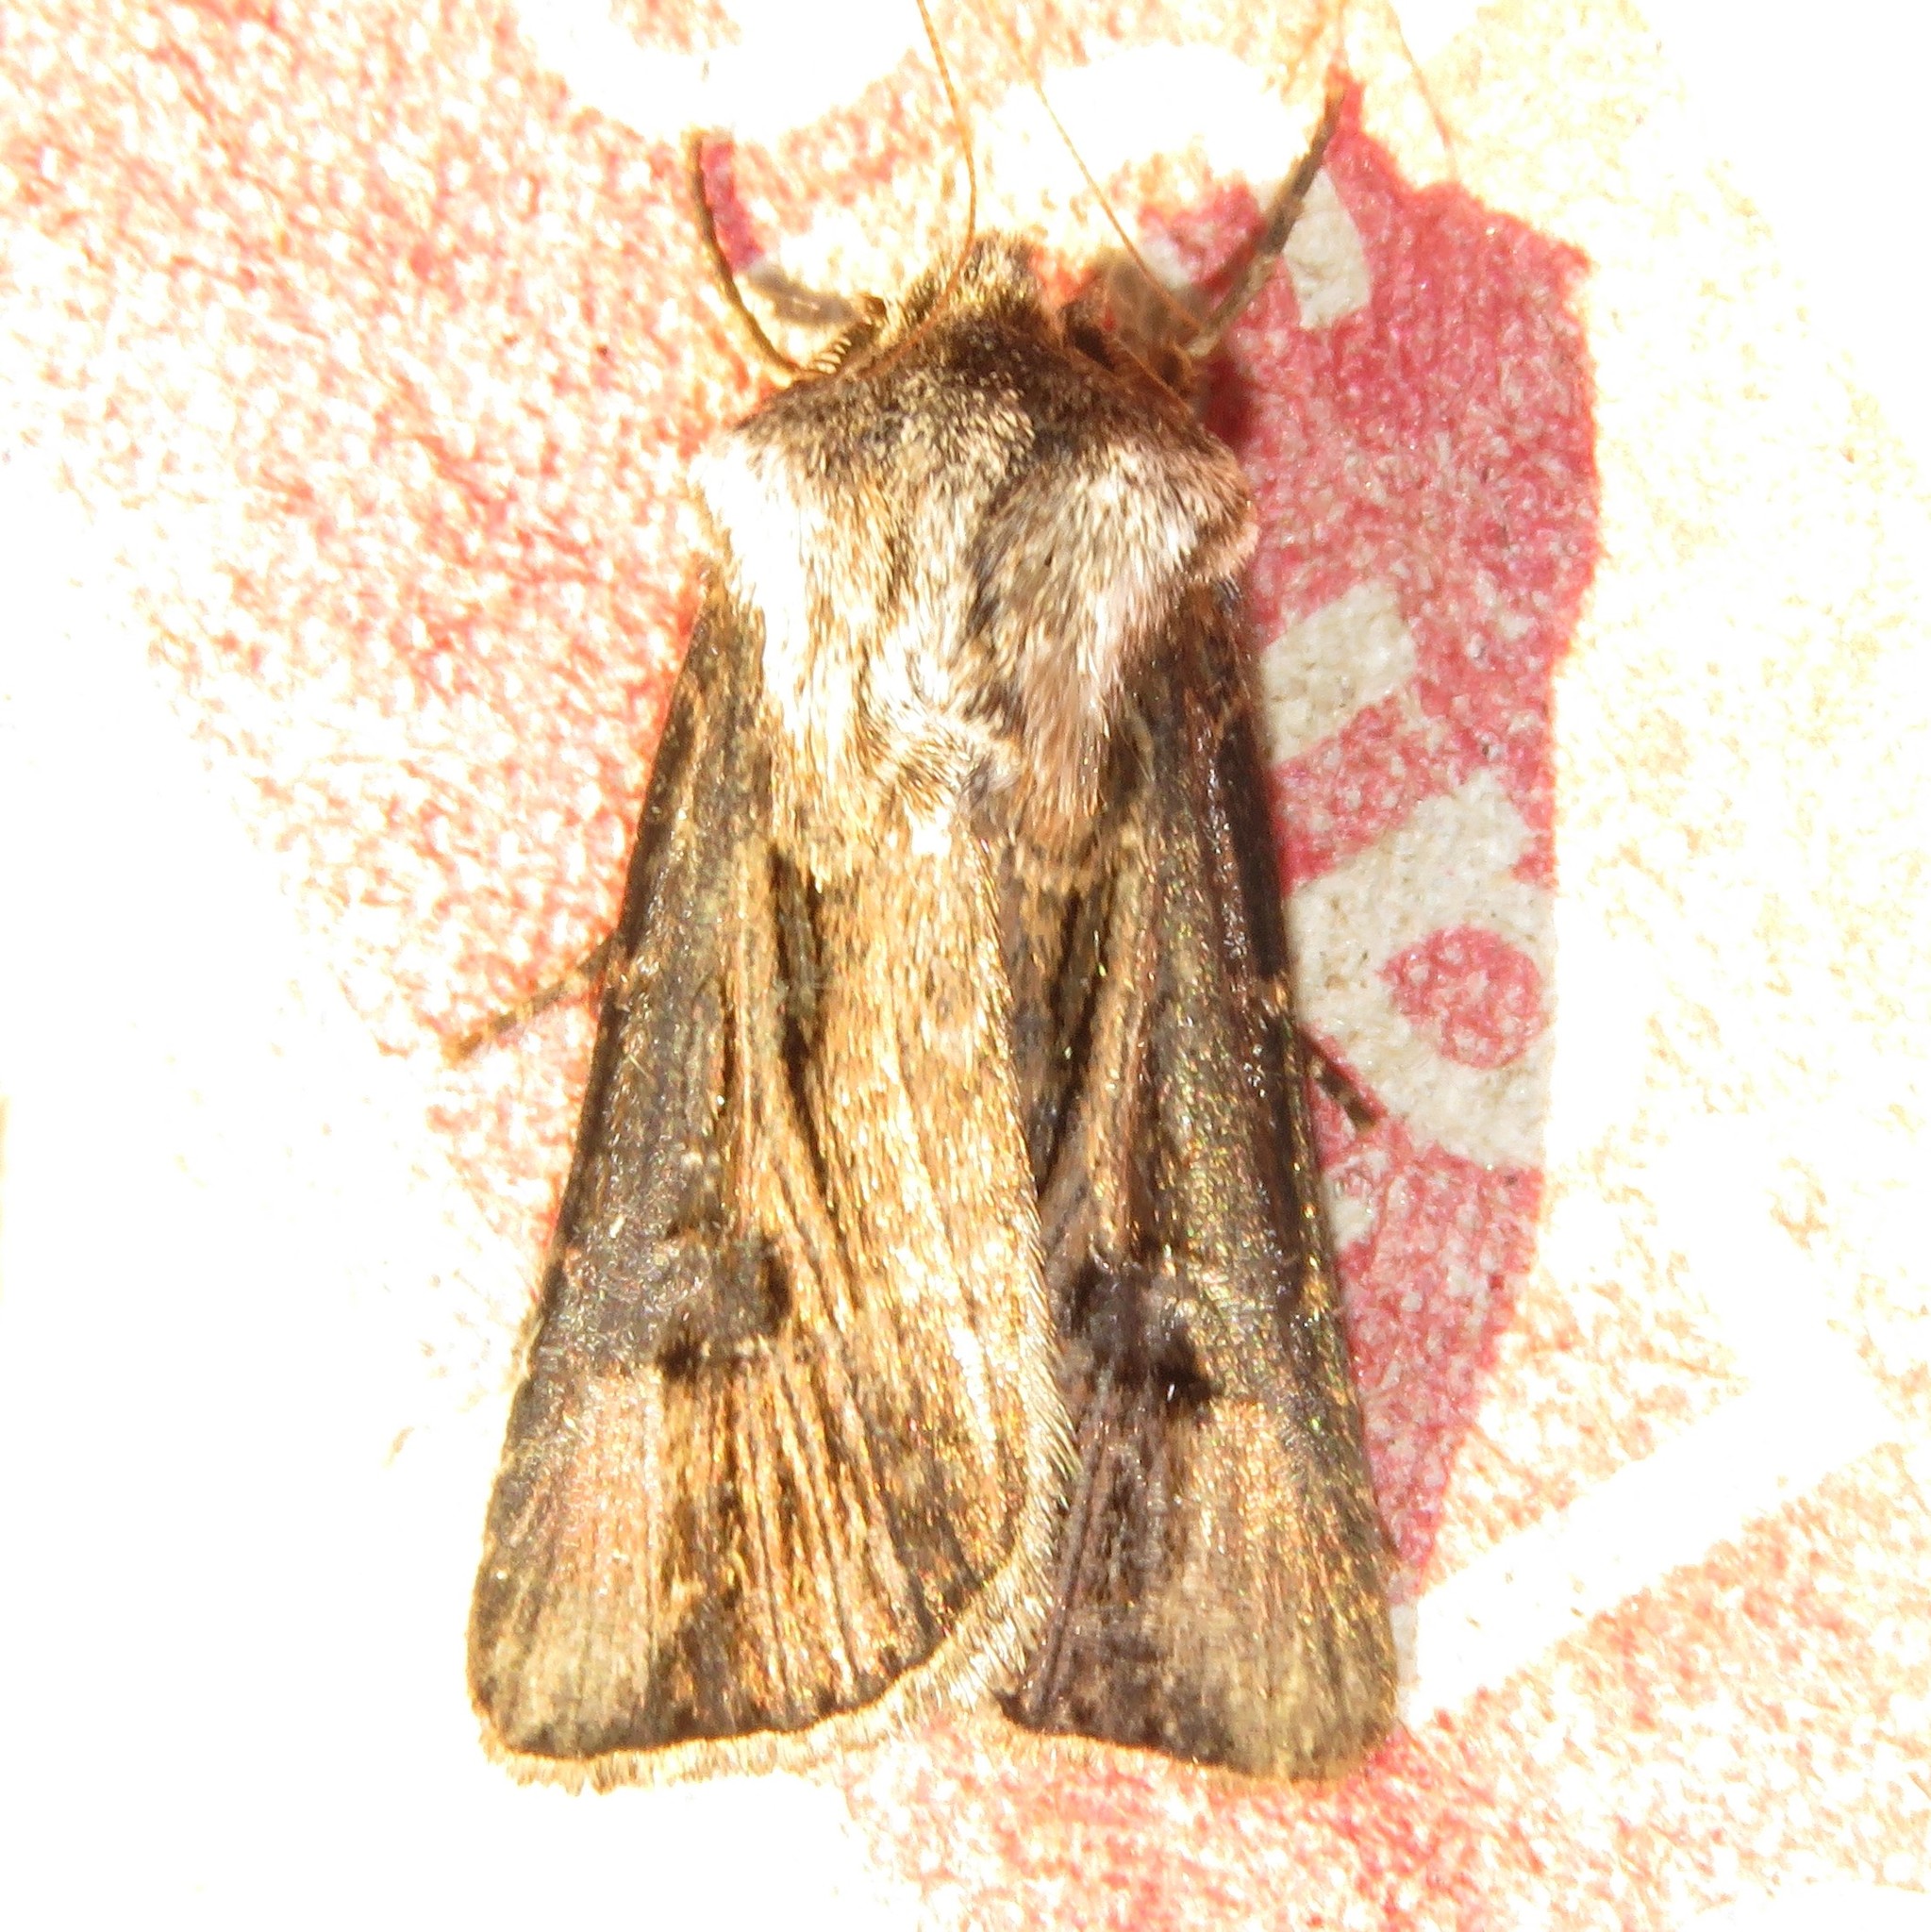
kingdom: Animalia
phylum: Arthropoda
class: Insecta
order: Lepidoptera
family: Noctuidae
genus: Agrotis
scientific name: Agrotis venerabilis
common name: Venerable dart
